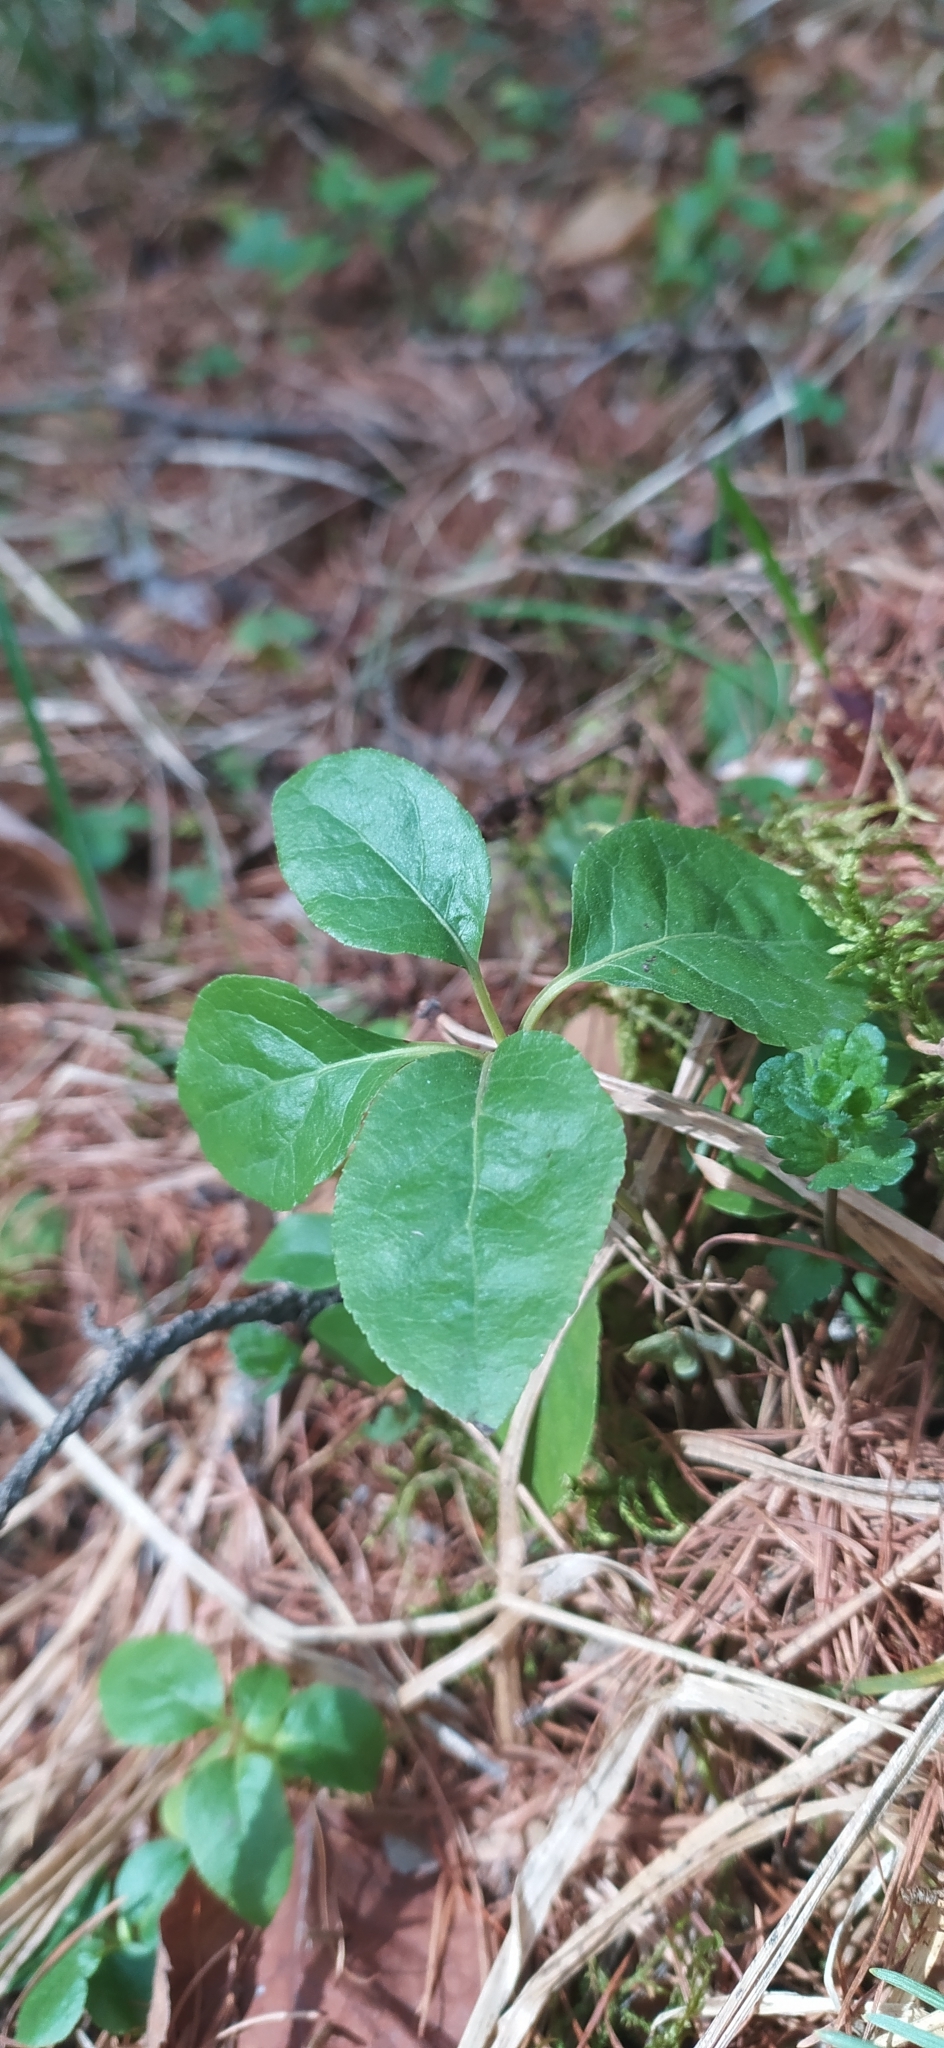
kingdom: Plantae
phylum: Tracheophyta
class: Magnoliopsida
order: Ericales
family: Ericaceae
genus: Orthilia
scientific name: Orthilia secunda
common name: One-sided orthilia
